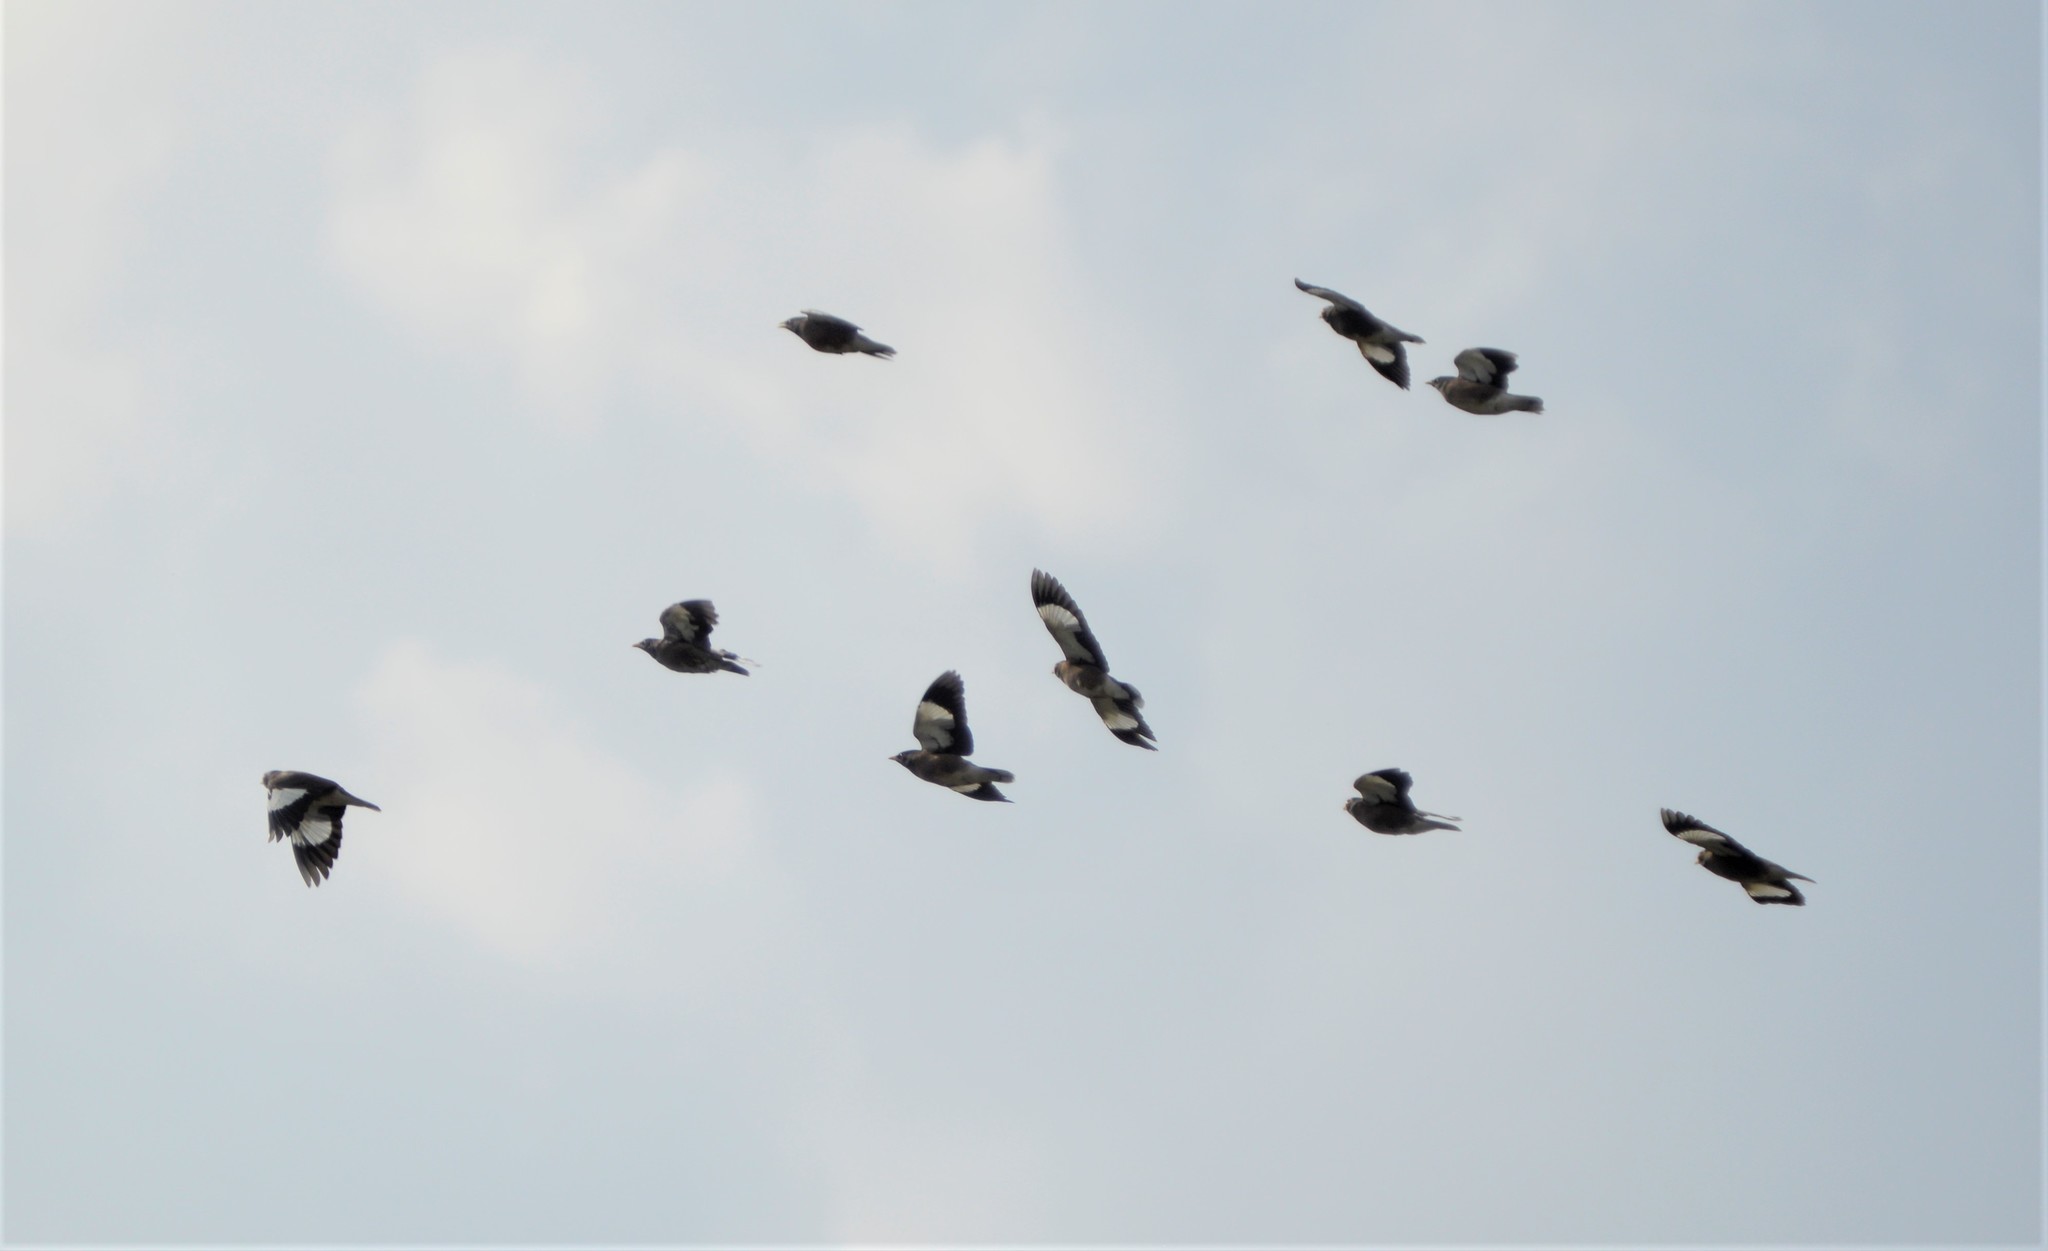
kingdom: Animalia
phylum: Chordata
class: Aves
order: Passeriformes
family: Sturnidae
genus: Acridotheres
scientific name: Acridotheres tristis
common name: Common myna
